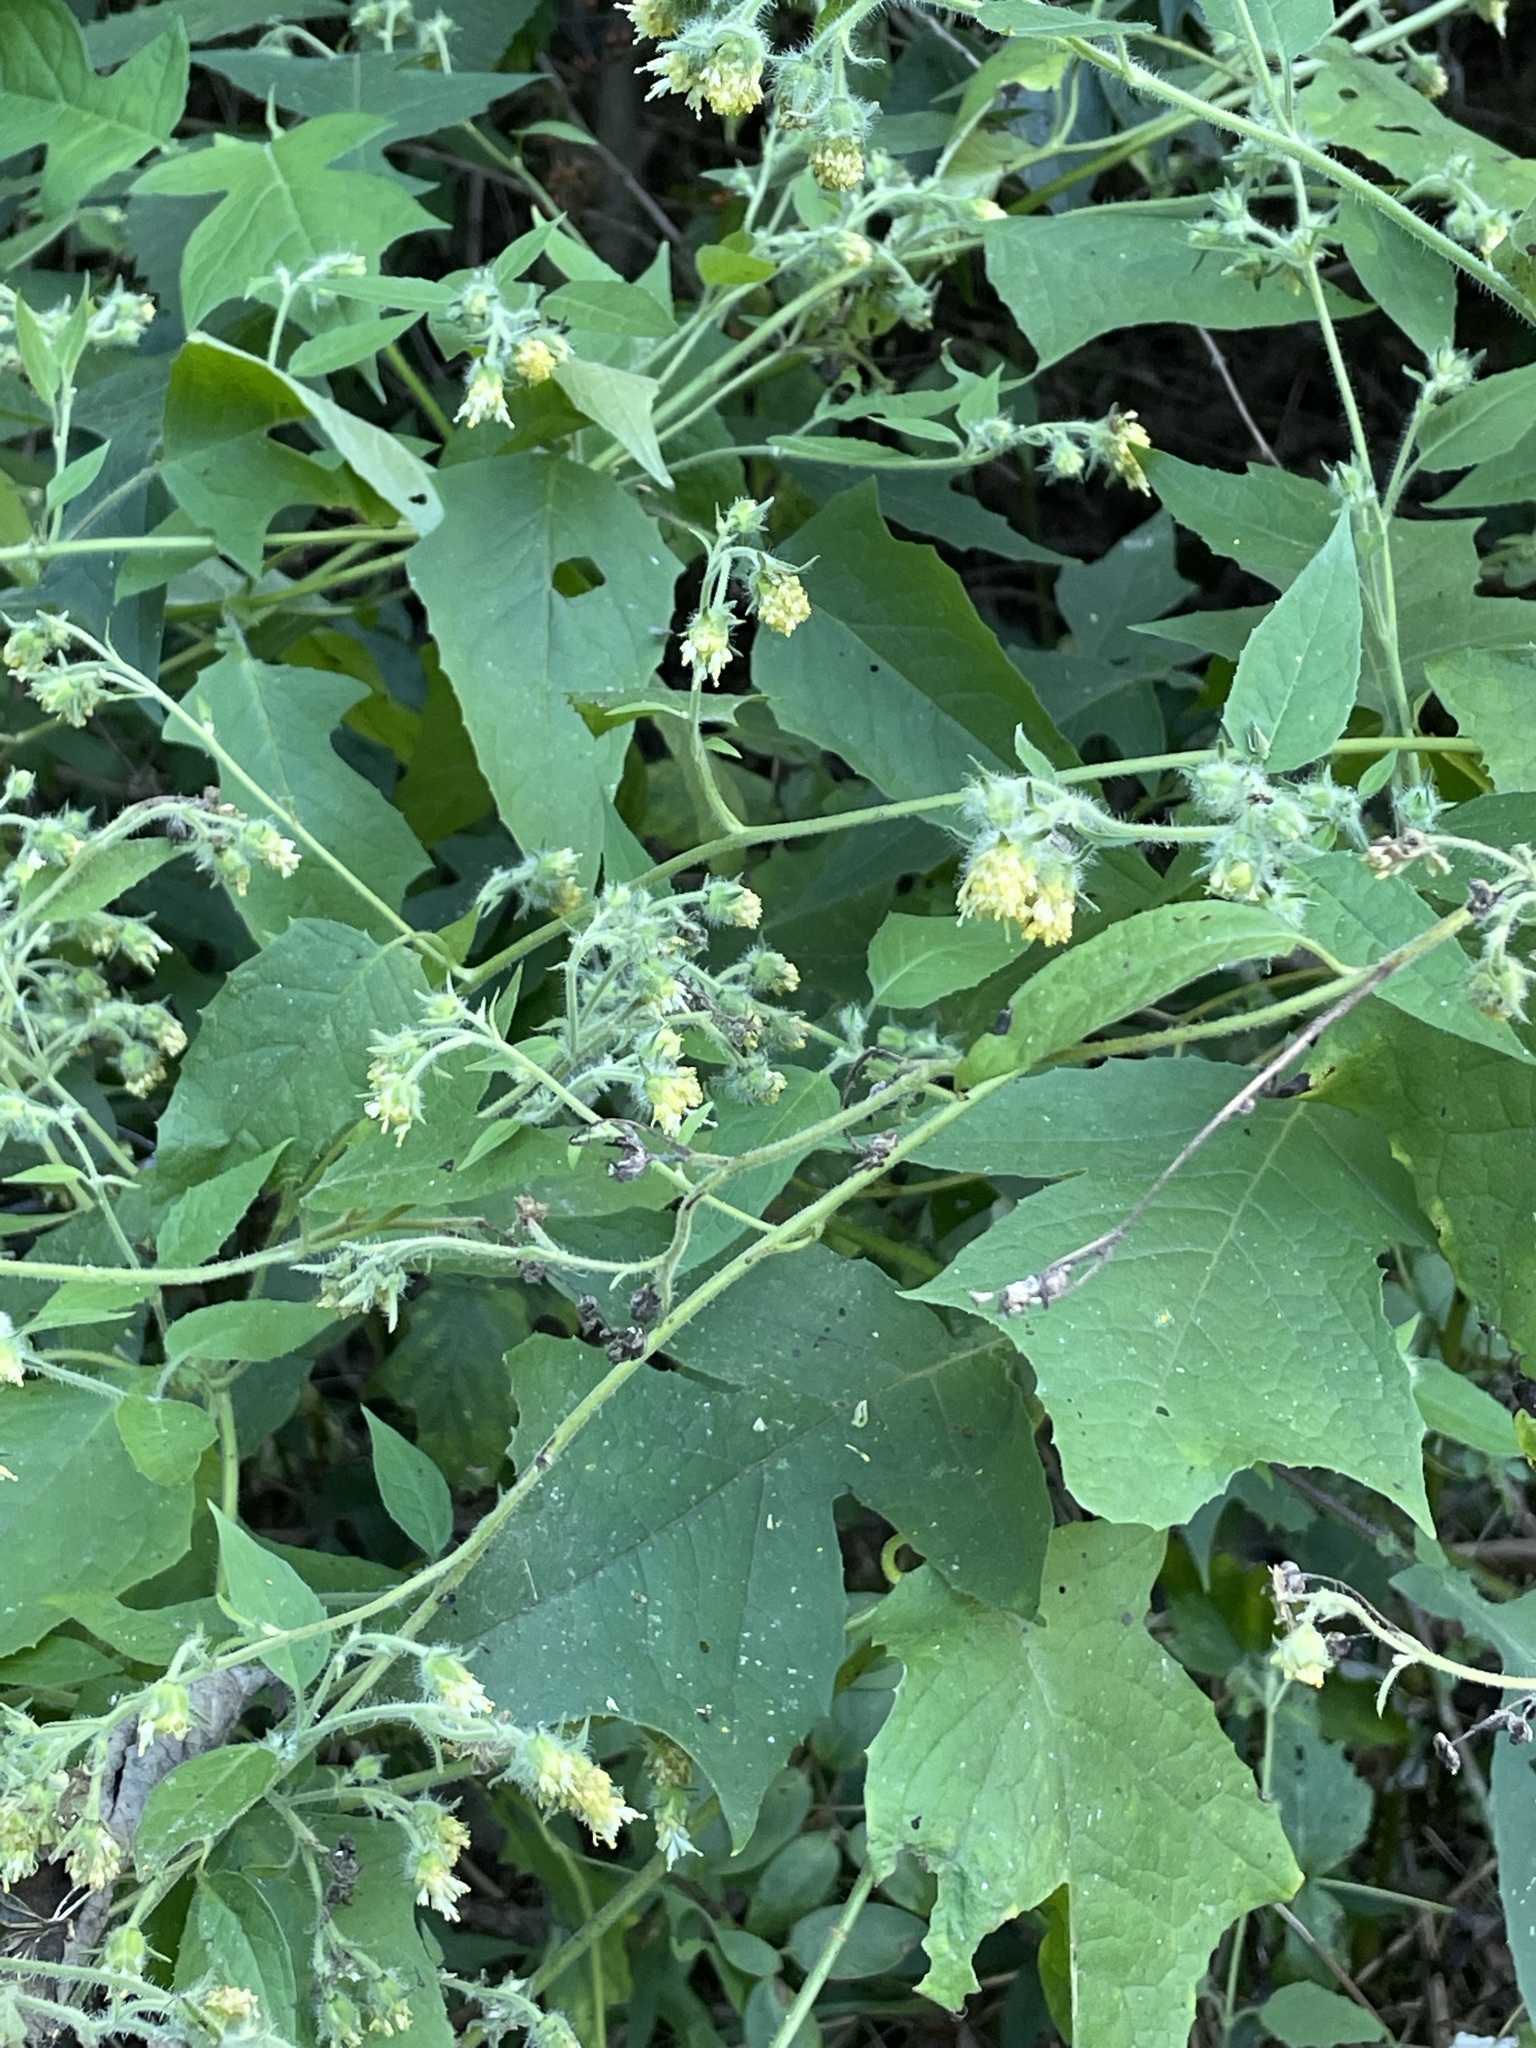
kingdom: Plantae
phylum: Tracheophyta
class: Magnoliopsida
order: Asterales
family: Asteraceae
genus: Polymnia
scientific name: Polymnia canadensis
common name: Pale-flowered leafcup
